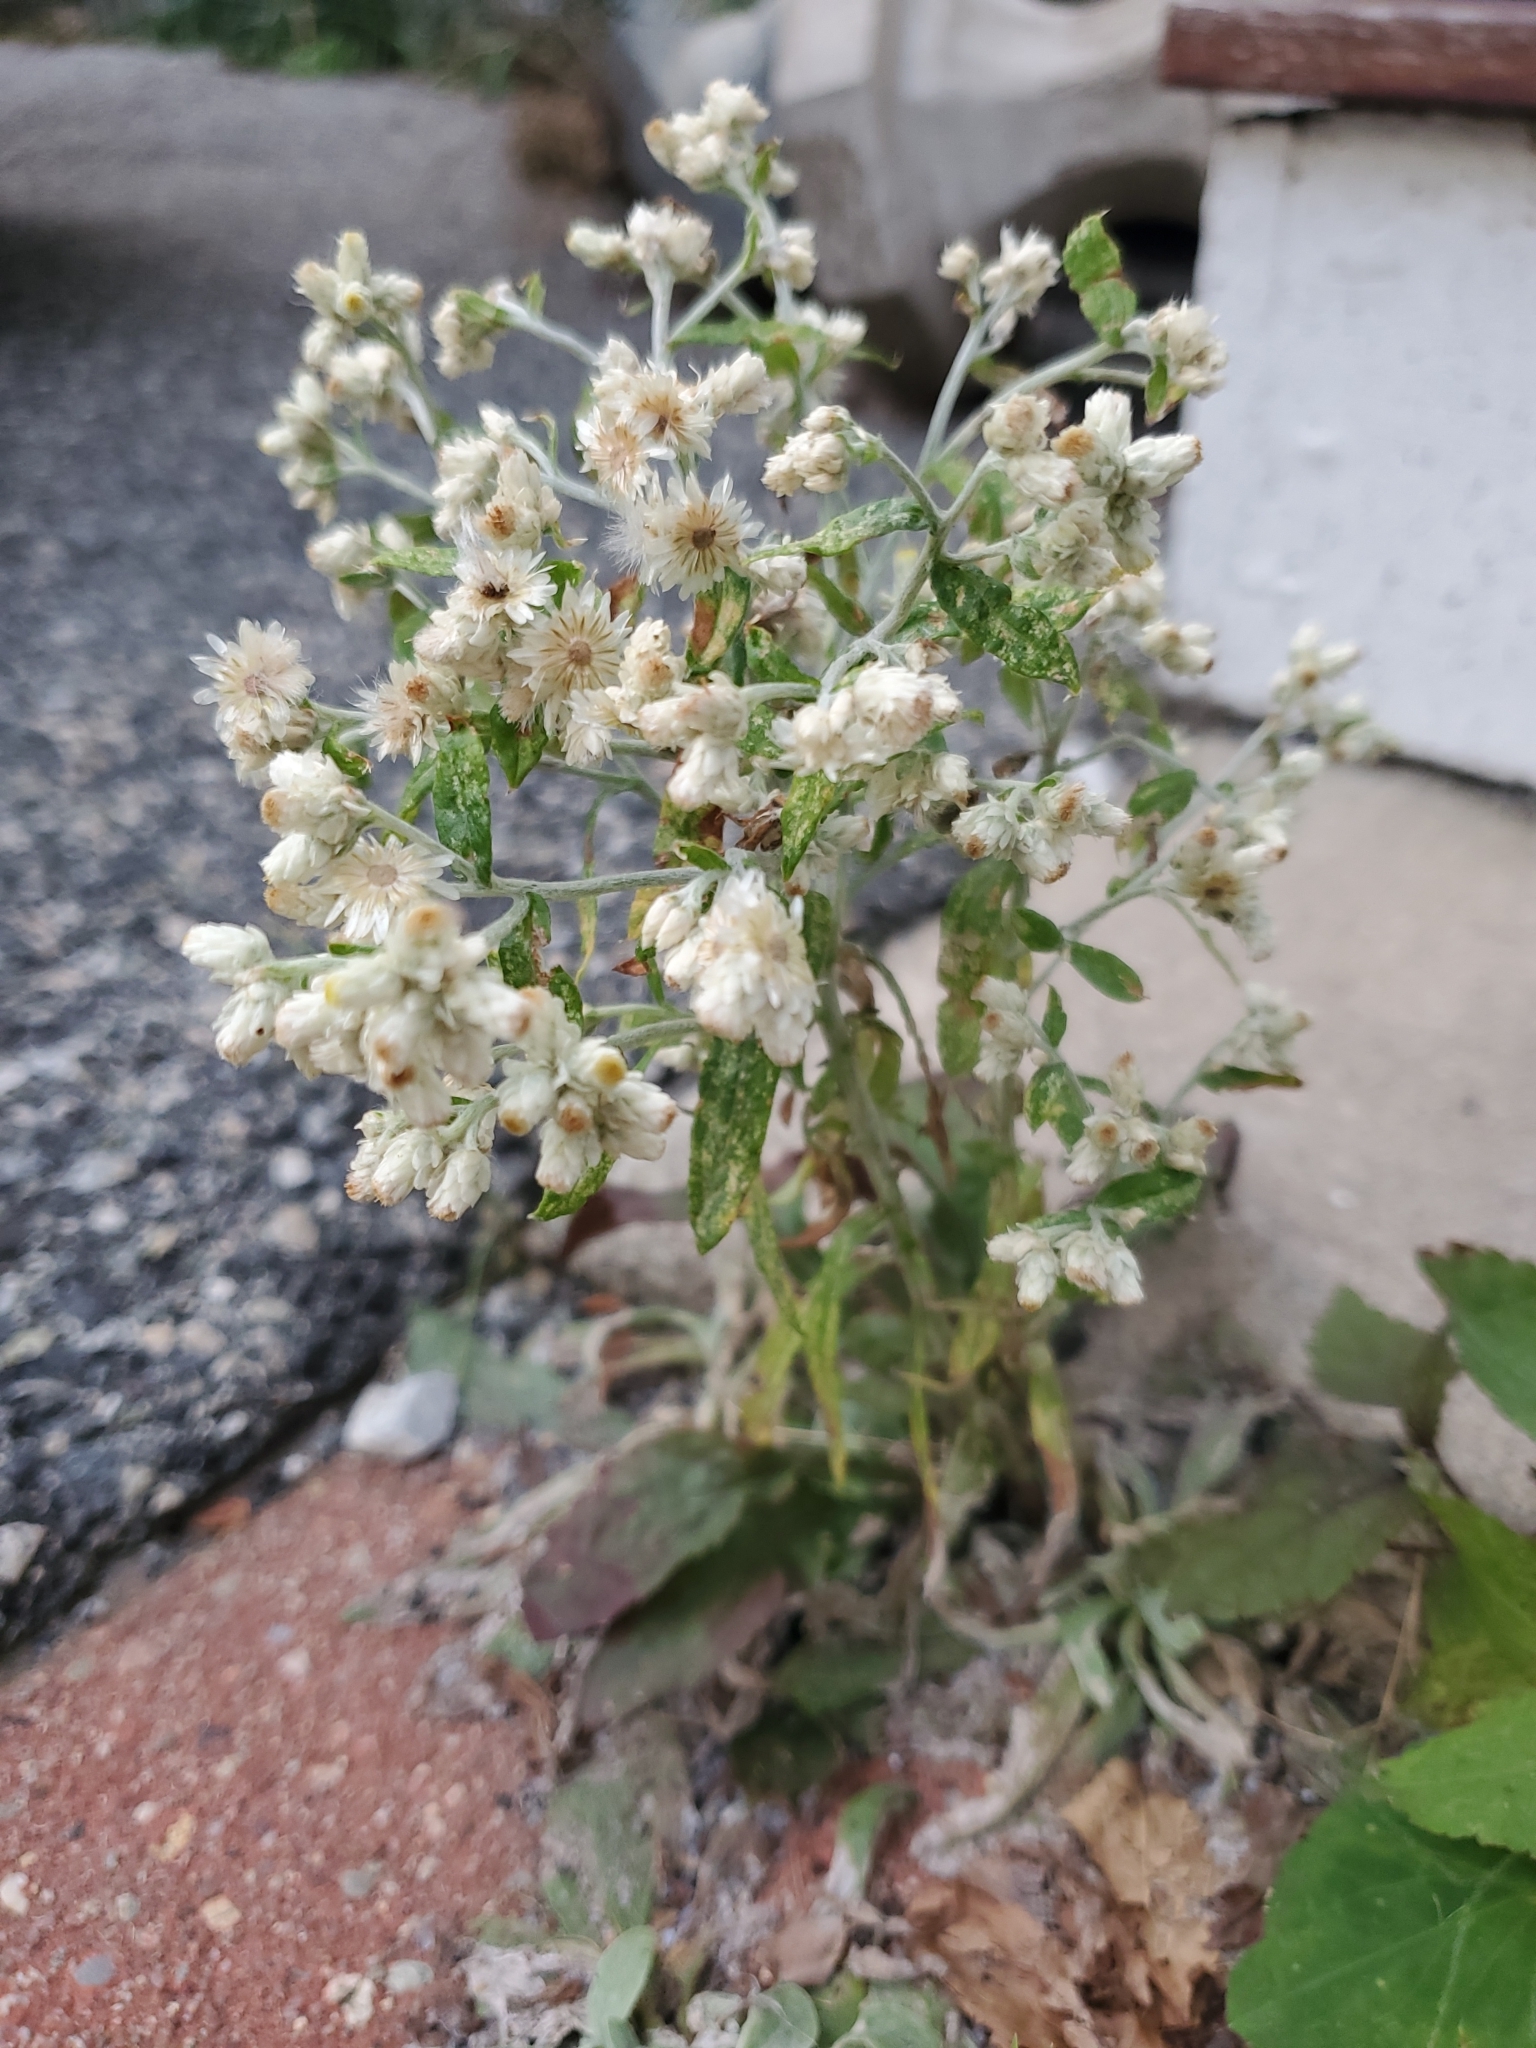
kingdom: Plantae
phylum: Tracheophyta
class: Magnoliopsida
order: Asterales
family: Asteraceae
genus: Pseudognaphalium
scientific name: Pseudognaphalium obtusifolium
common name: Eastern rabbit-tobacco
